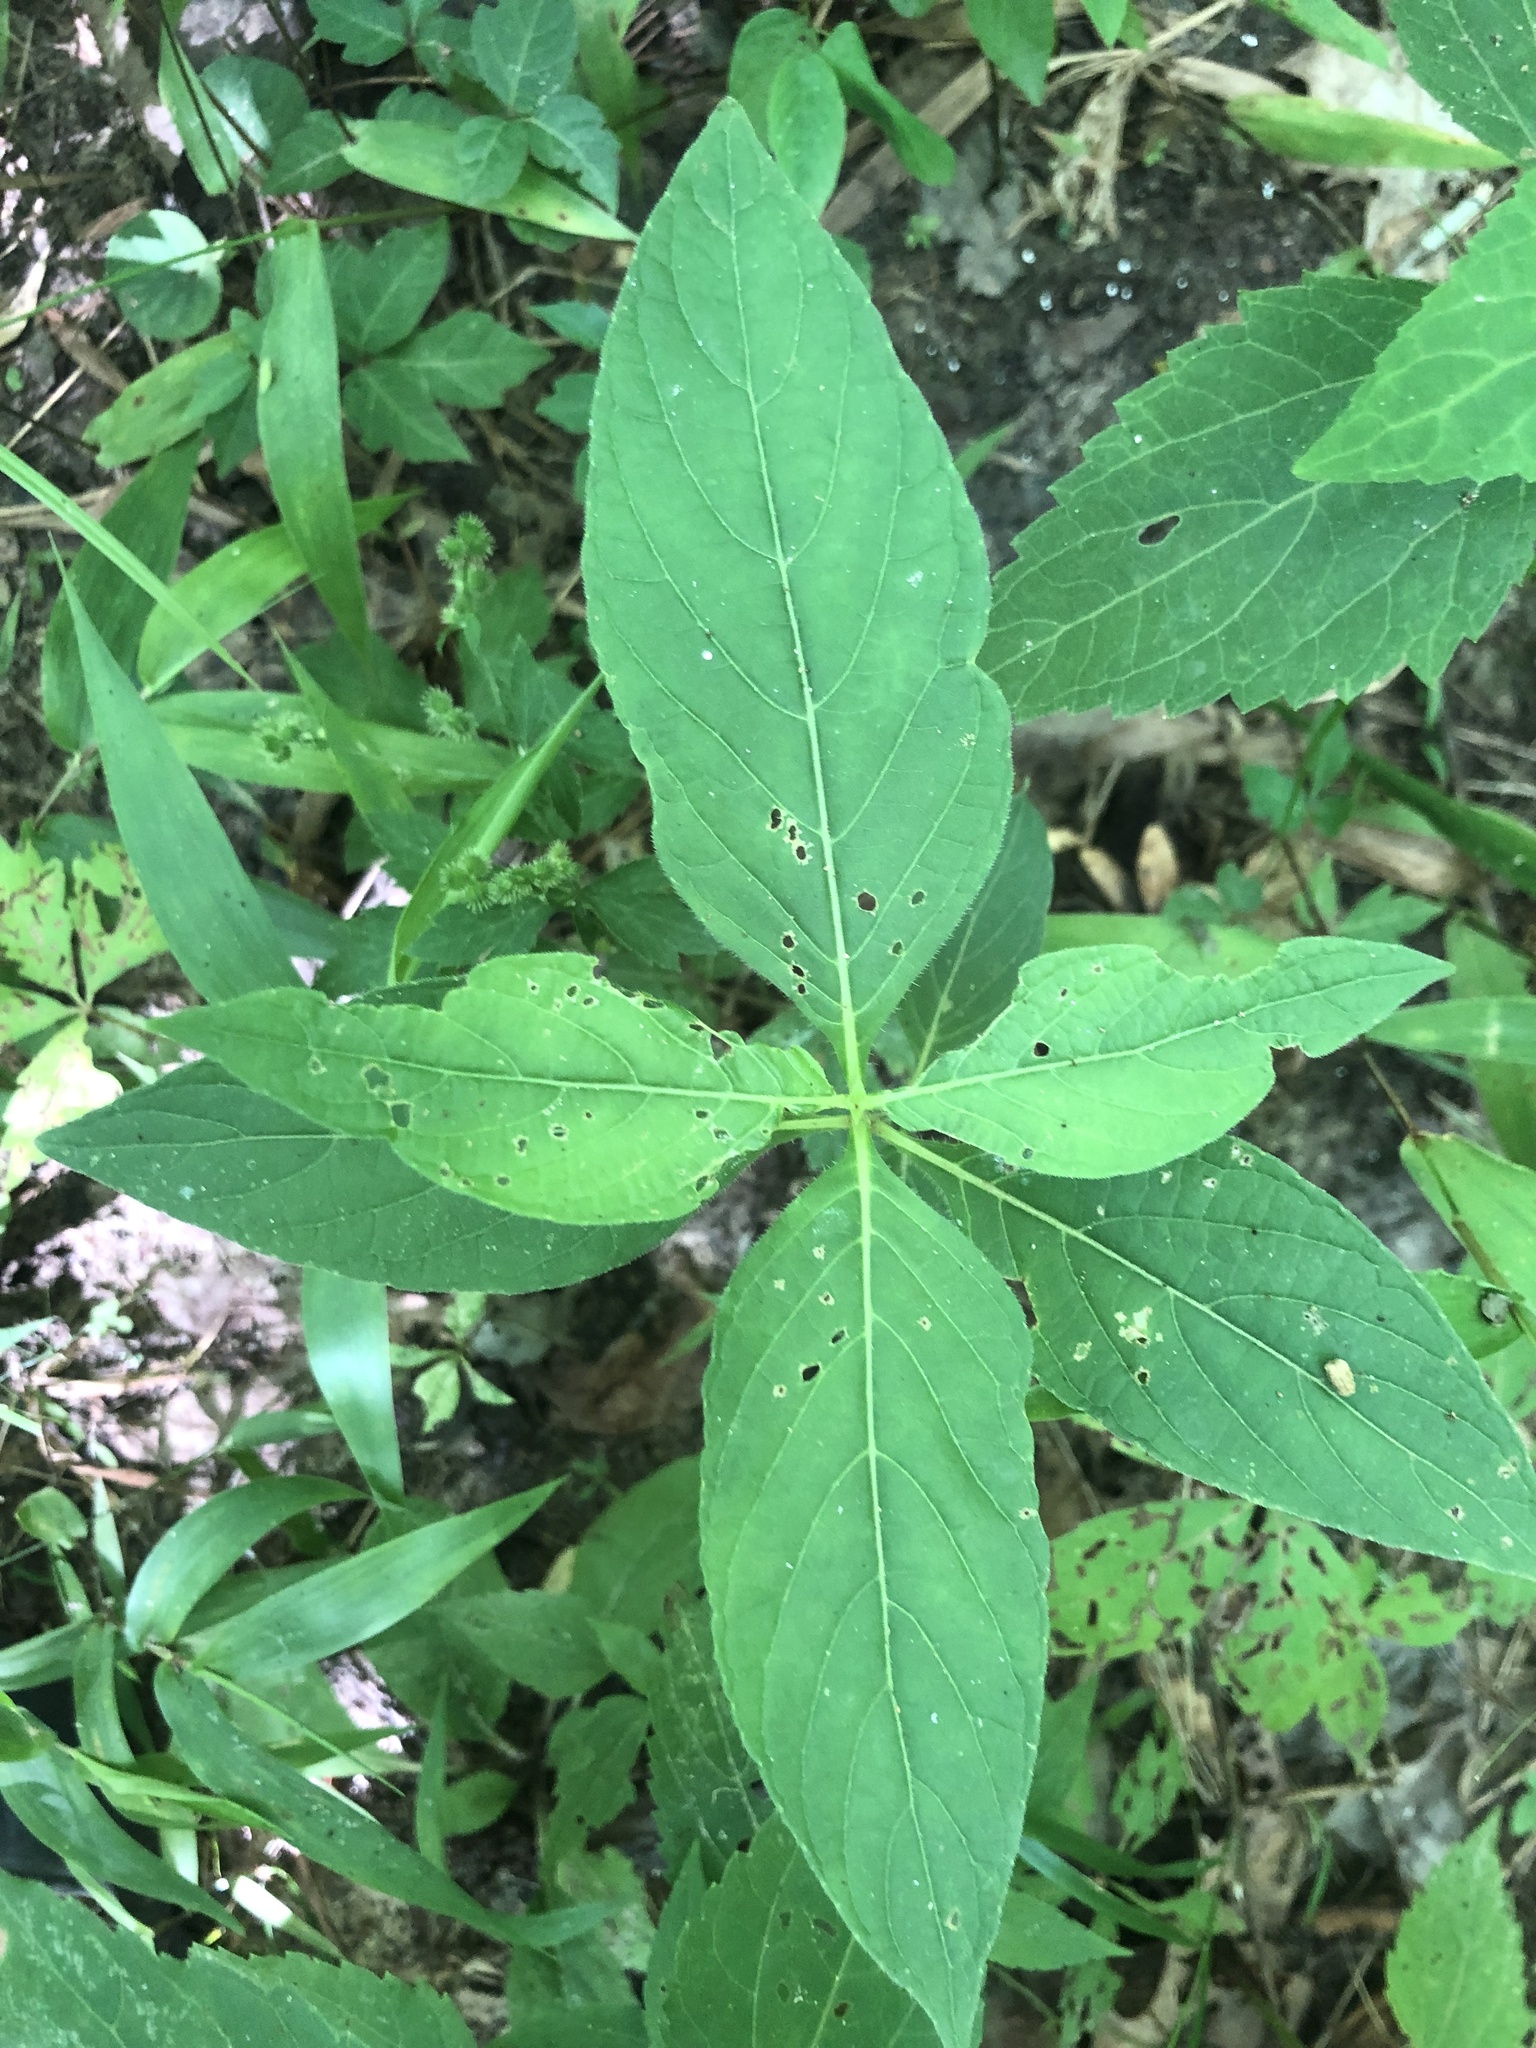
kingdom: Plantae
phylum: Tracheophyta
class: Magnoliopsida
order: Lamiales
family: Acanthaceae
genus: Ruellia
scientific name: Ruellia strepens
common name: Limestone wild petunia
